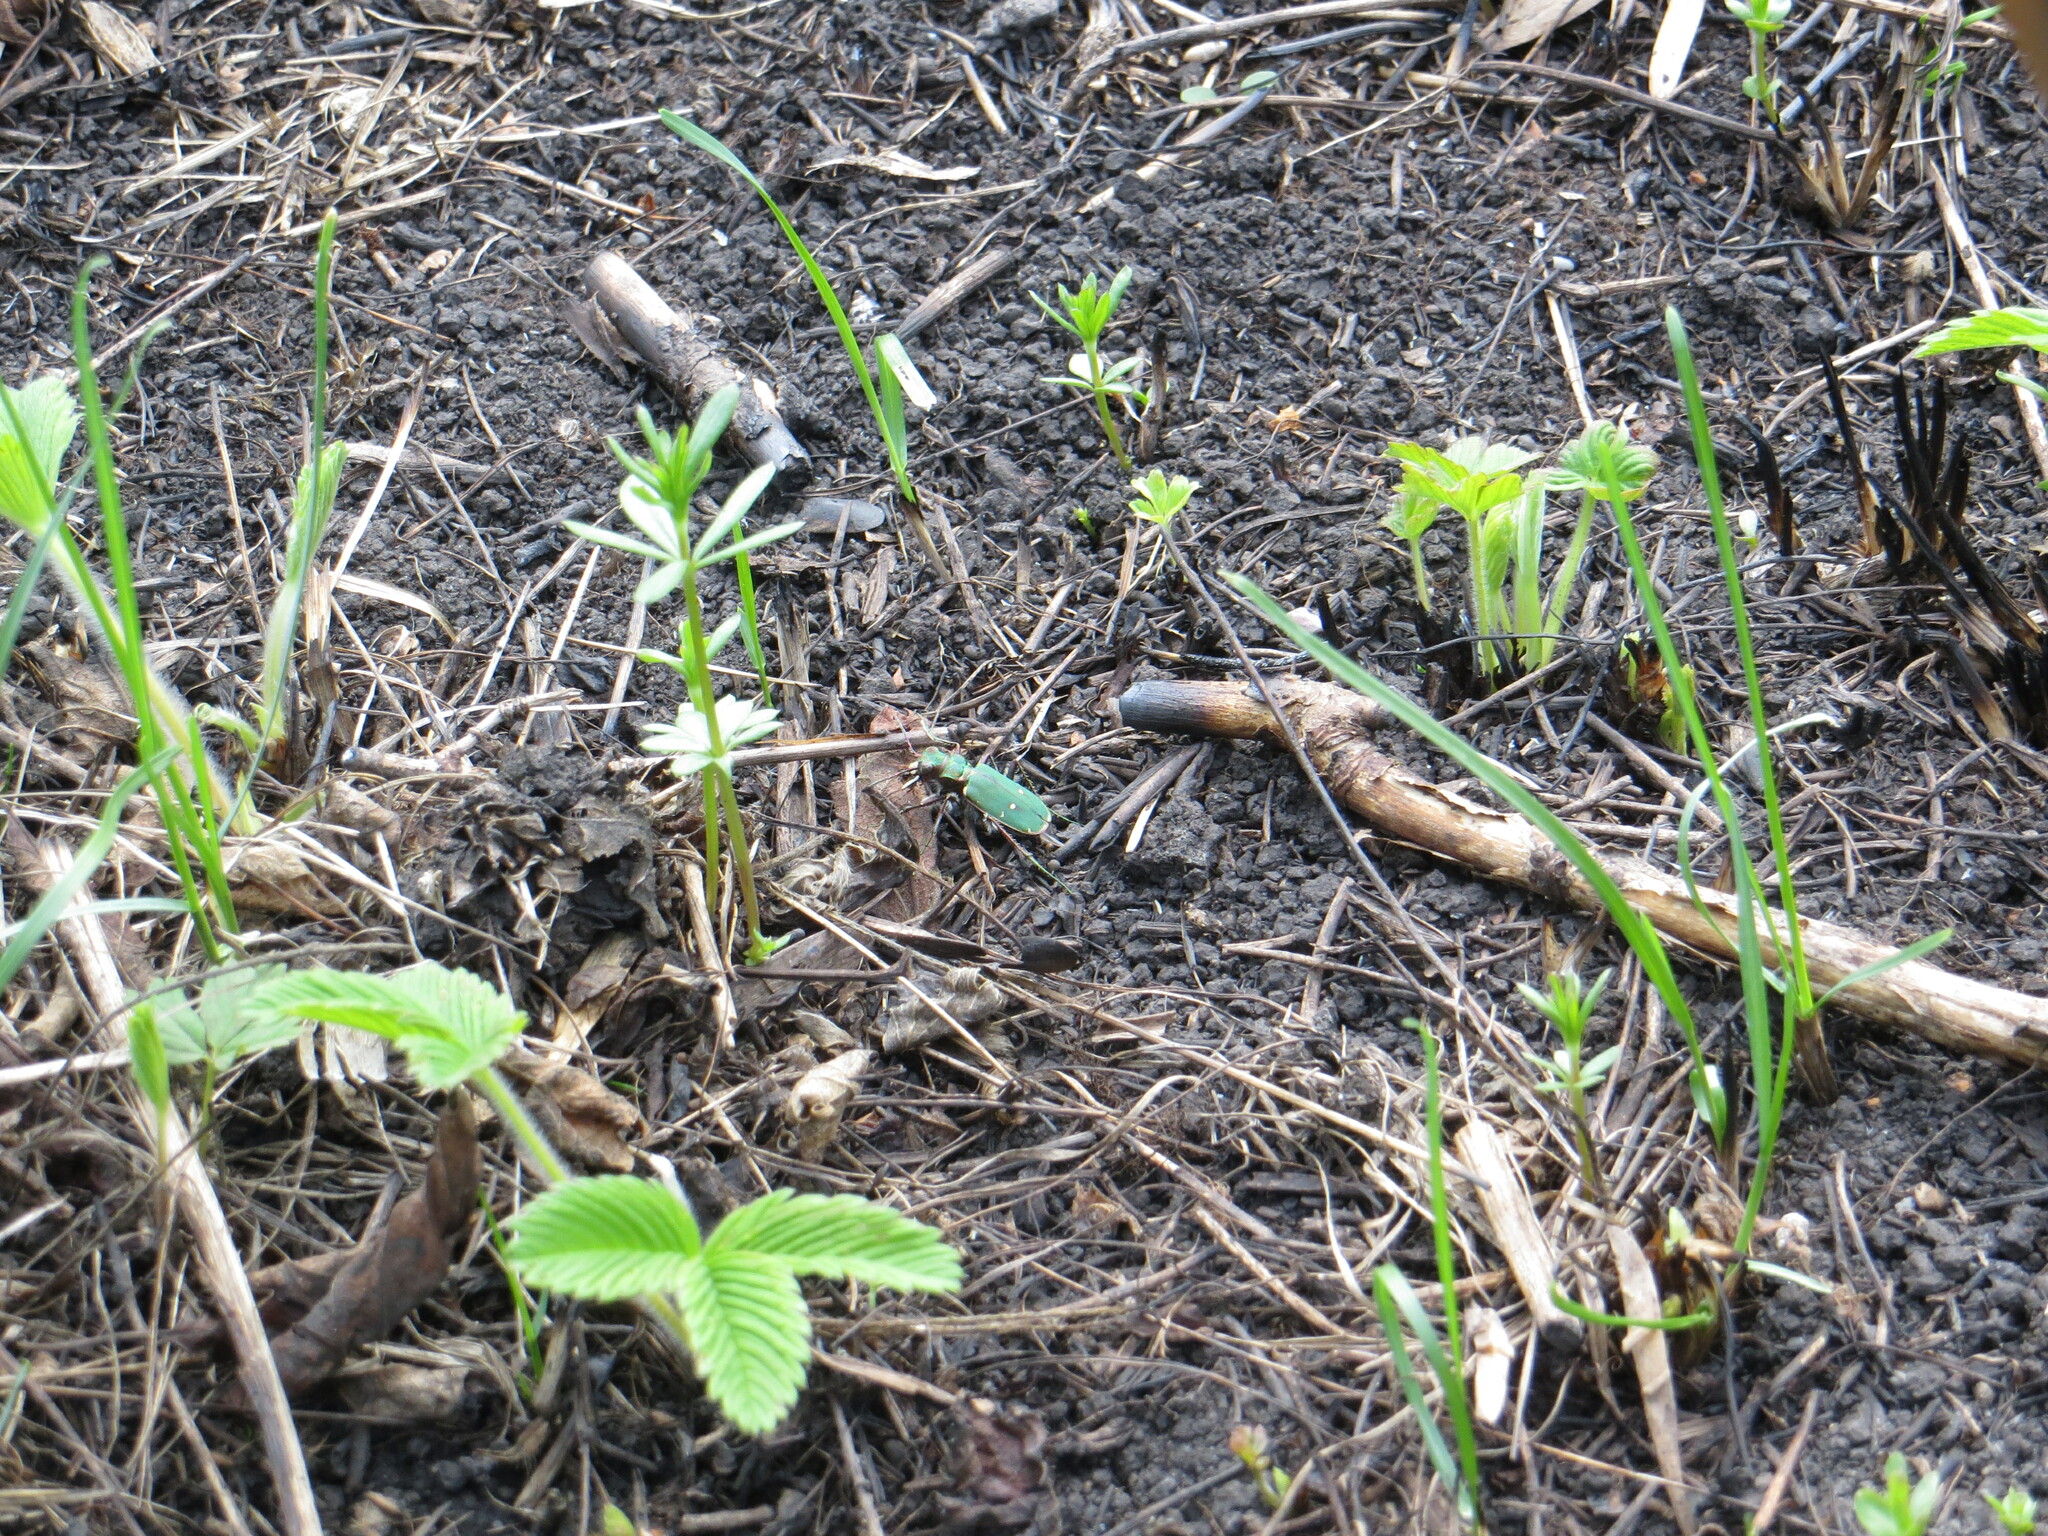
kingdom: Animalia
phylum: Arthropoda
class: Insecta
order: Coleoptera
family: Carabidae
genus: Cicindela
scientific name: Cicindela campestris
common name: Common tiger beetle
